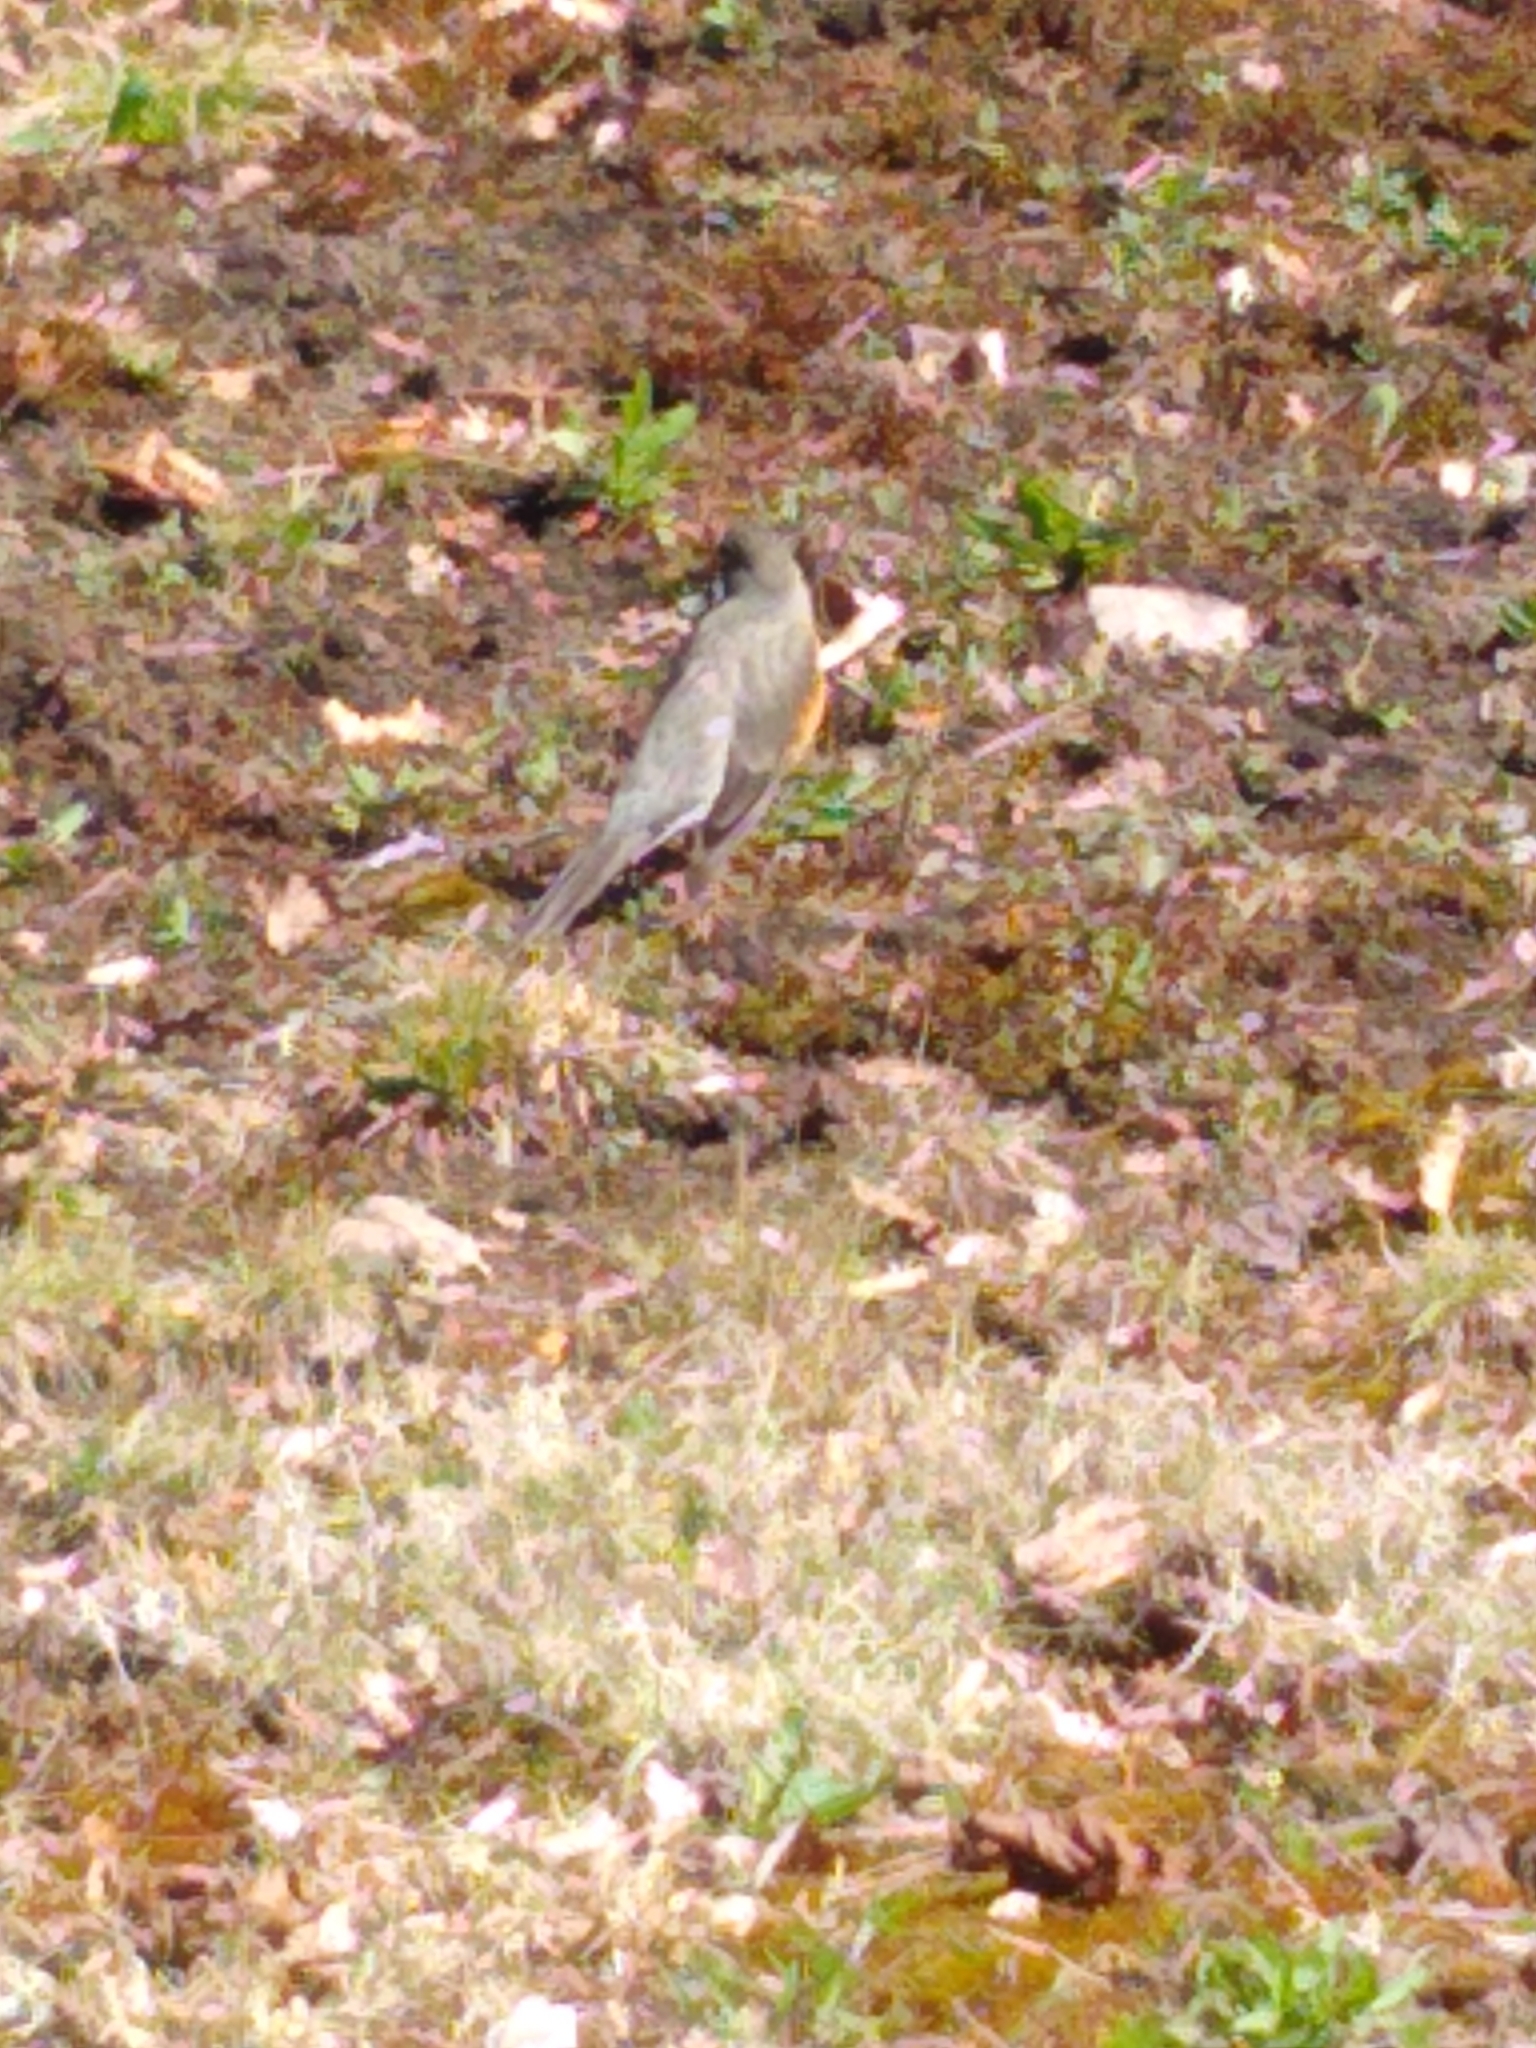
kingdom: Animalia
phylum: Chordata
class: Aves
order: Passeriformes
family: Turdidae
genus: Turdus
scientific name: Turdus migratorius
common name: American robin
